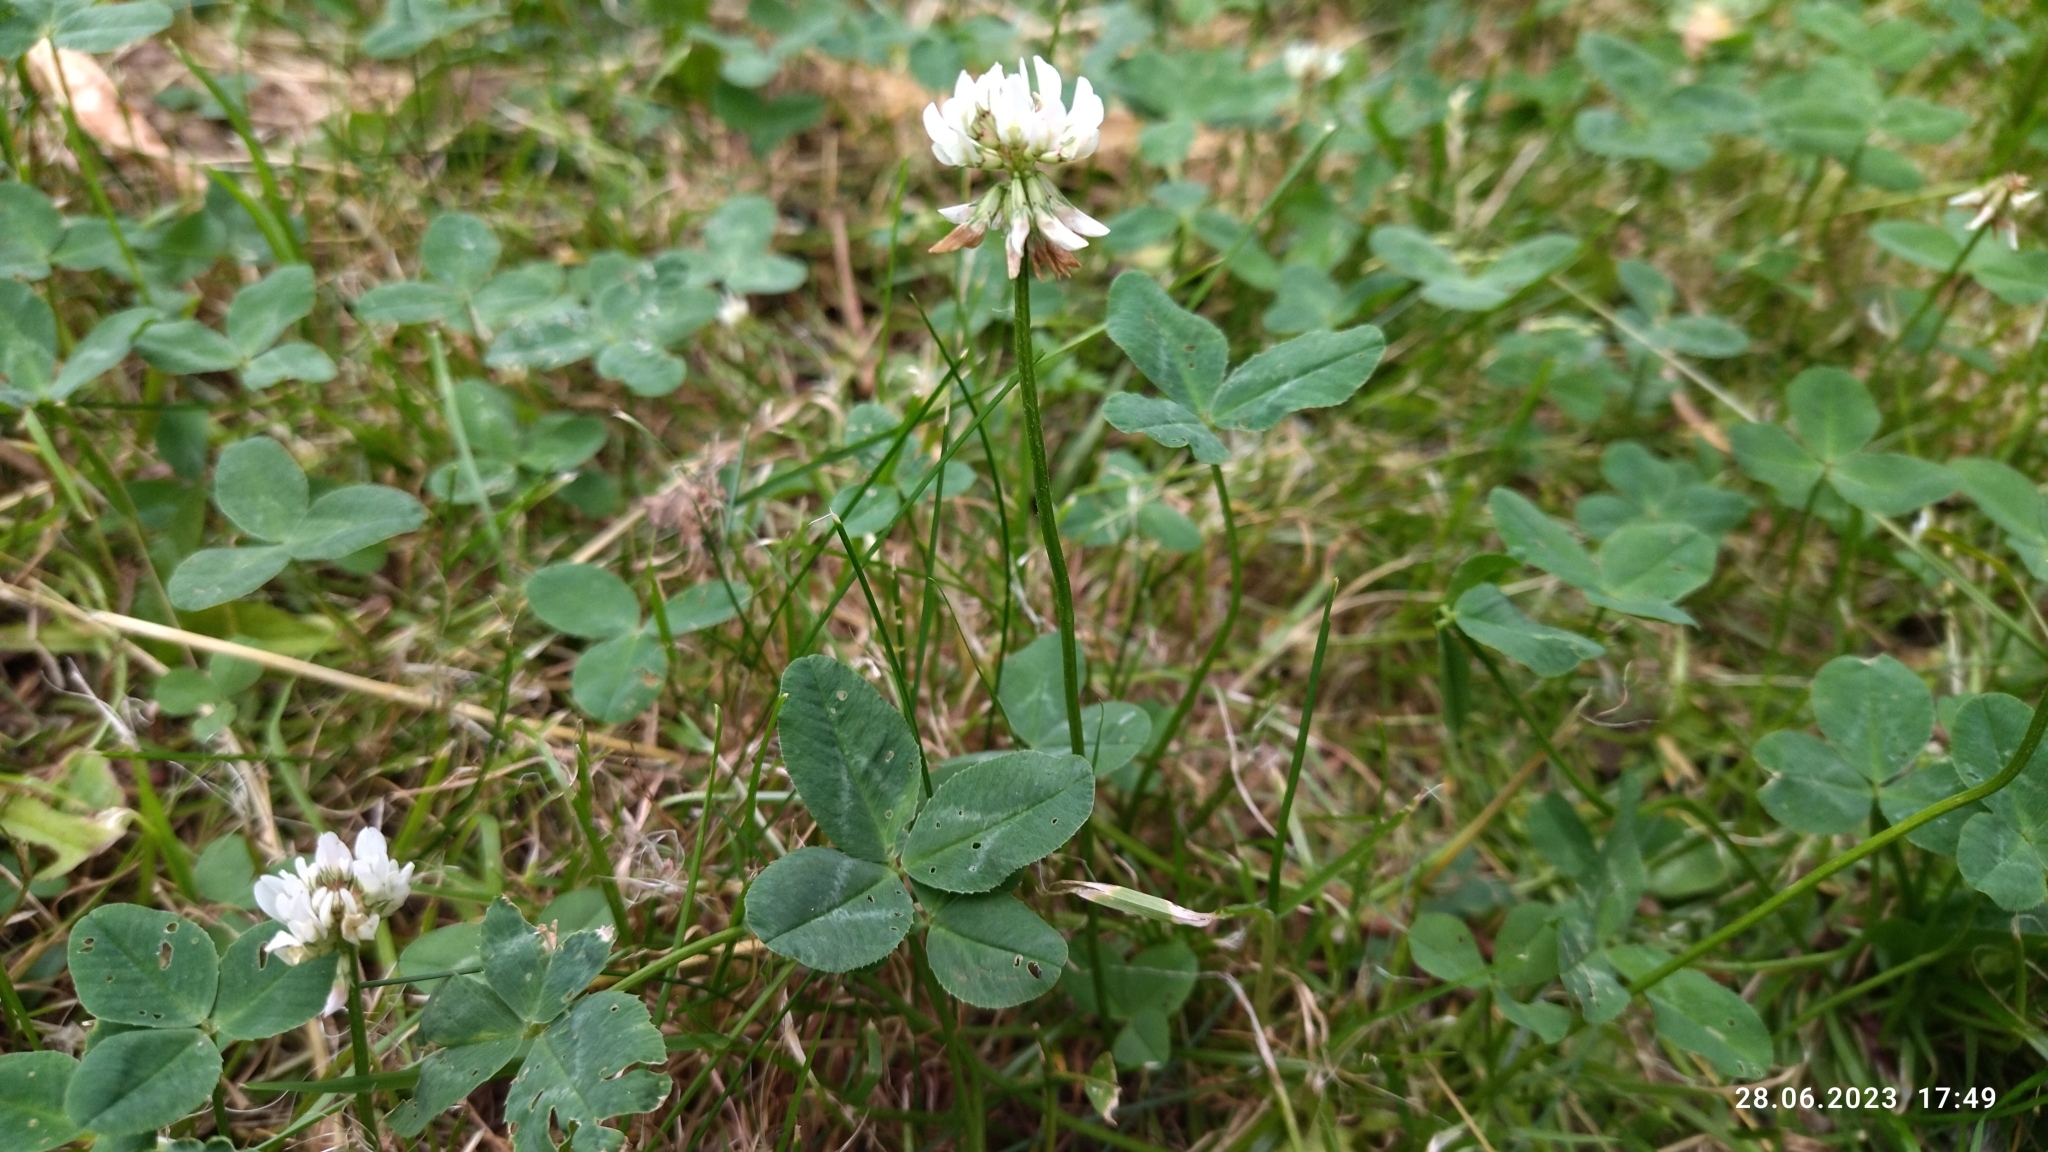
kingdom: Plantae
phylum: Tracheophyta
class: Magnoliopsida
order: Fabales
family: Fabaceae
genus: Trifolium
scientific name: Trifolium repens
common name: White clover
